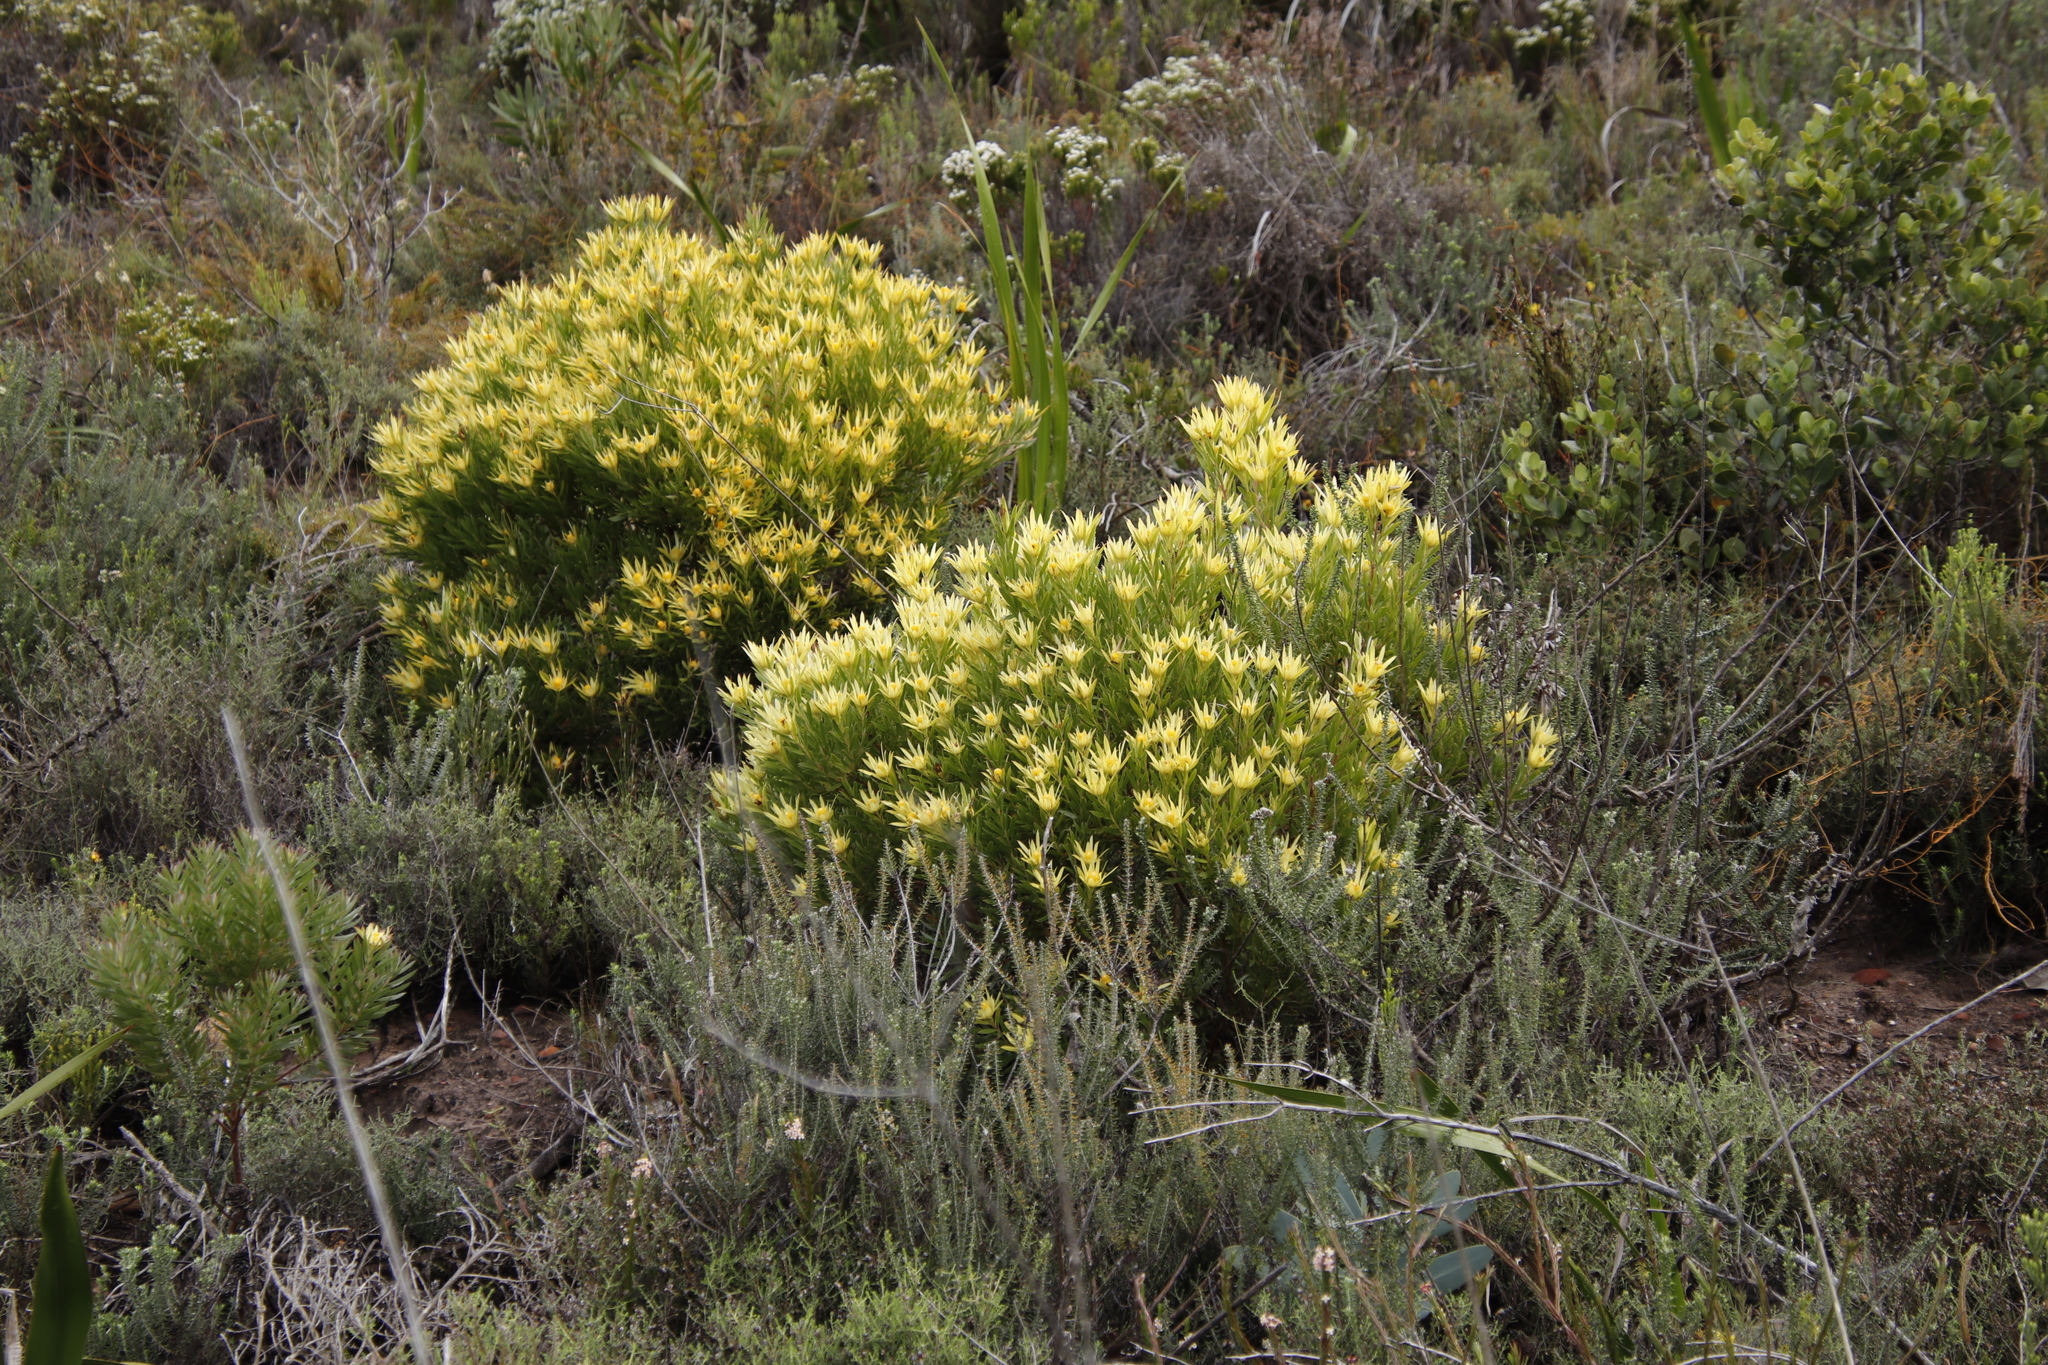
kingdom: Plantae
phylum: Tracheophyta
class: Magnoliopsida
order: Proteales
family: Proteaceae
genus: Leucadendron
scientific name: Leucadendron xanthoconus
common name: Sickle-leaf conebush
